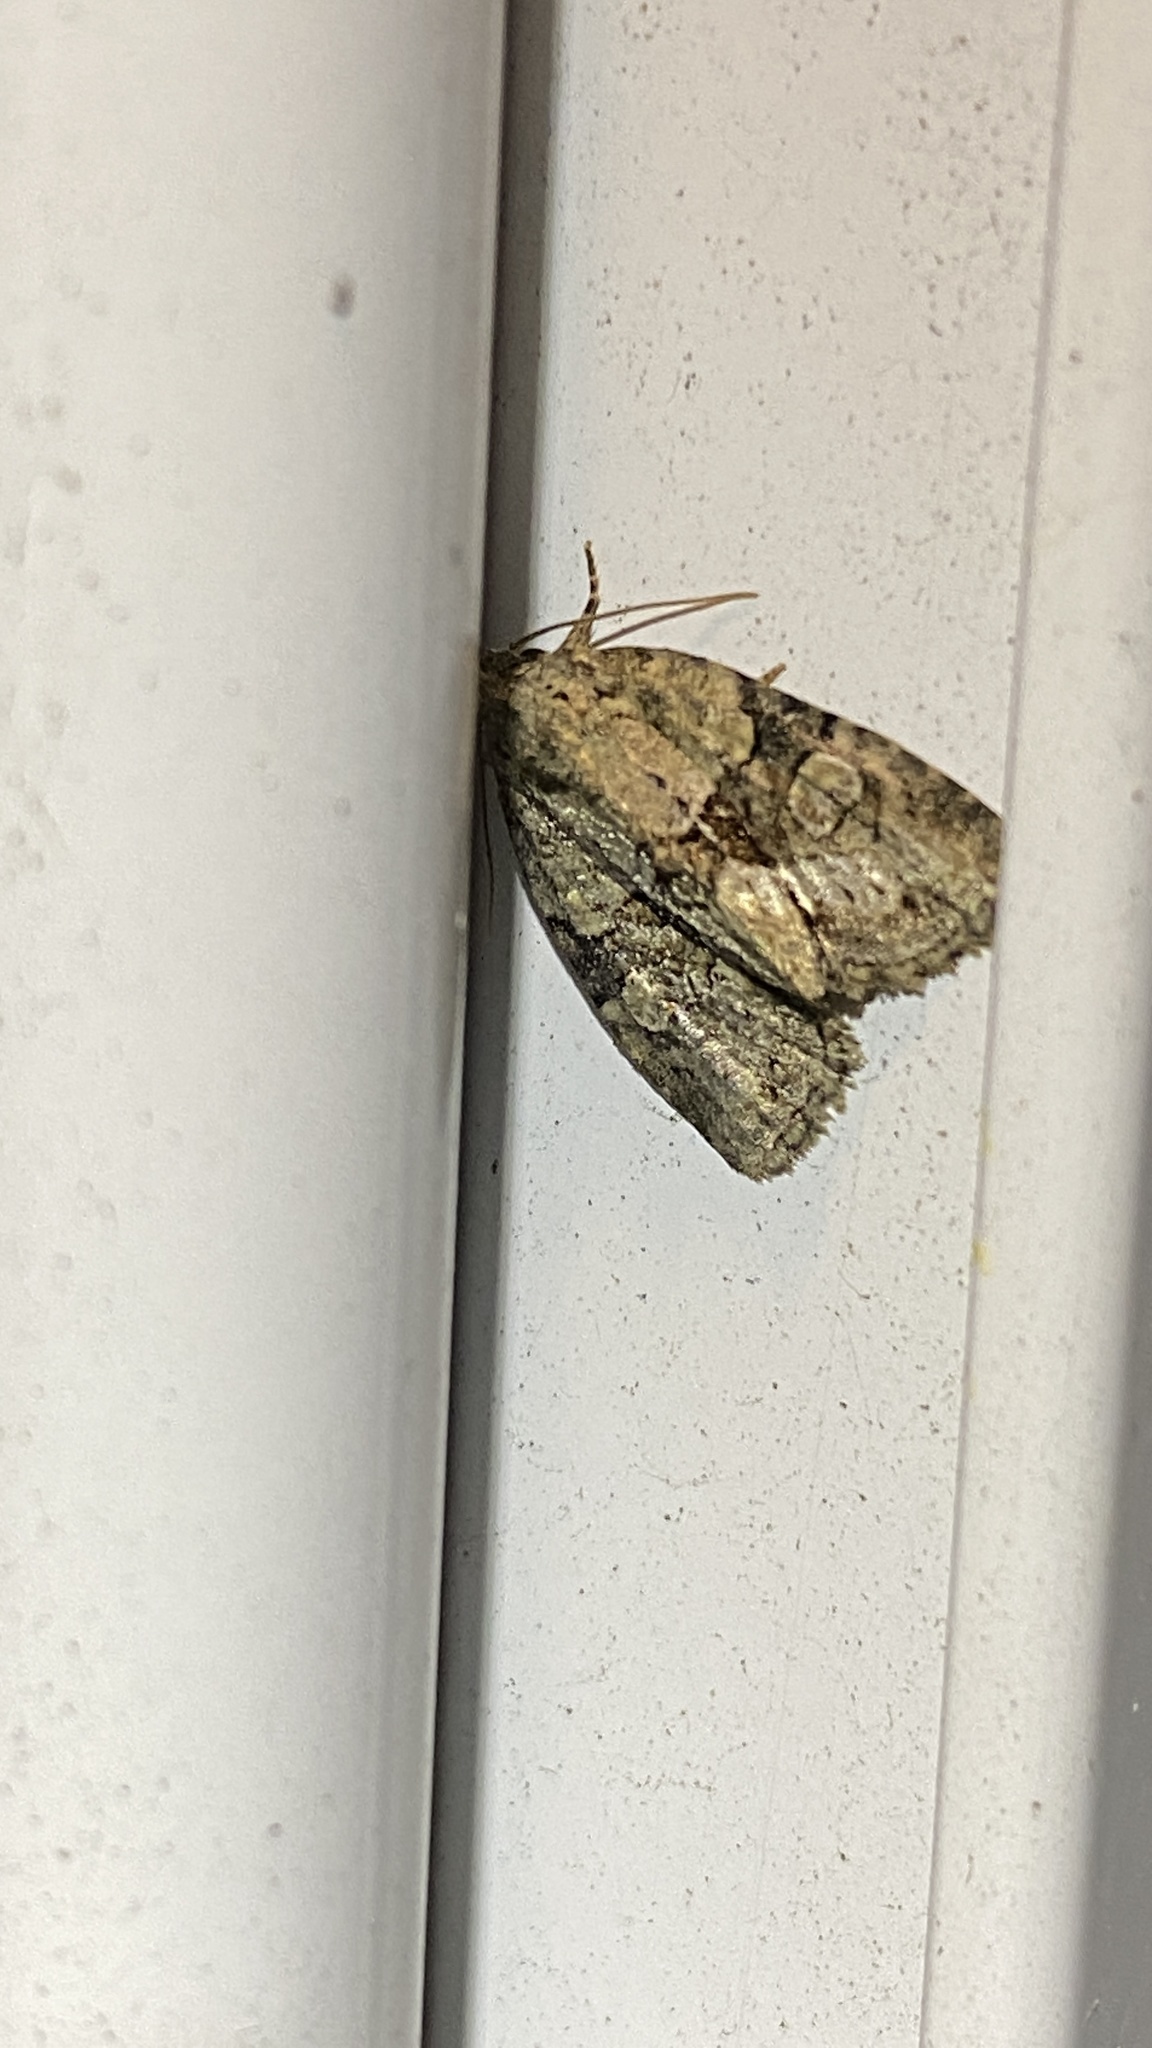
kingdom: Animalia
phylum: Arthropoda
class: Insecta
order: Lepidoptera
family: Noctuidae
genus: Neoligia
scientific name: Neoligia exhausta
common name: Exhausted brocade
